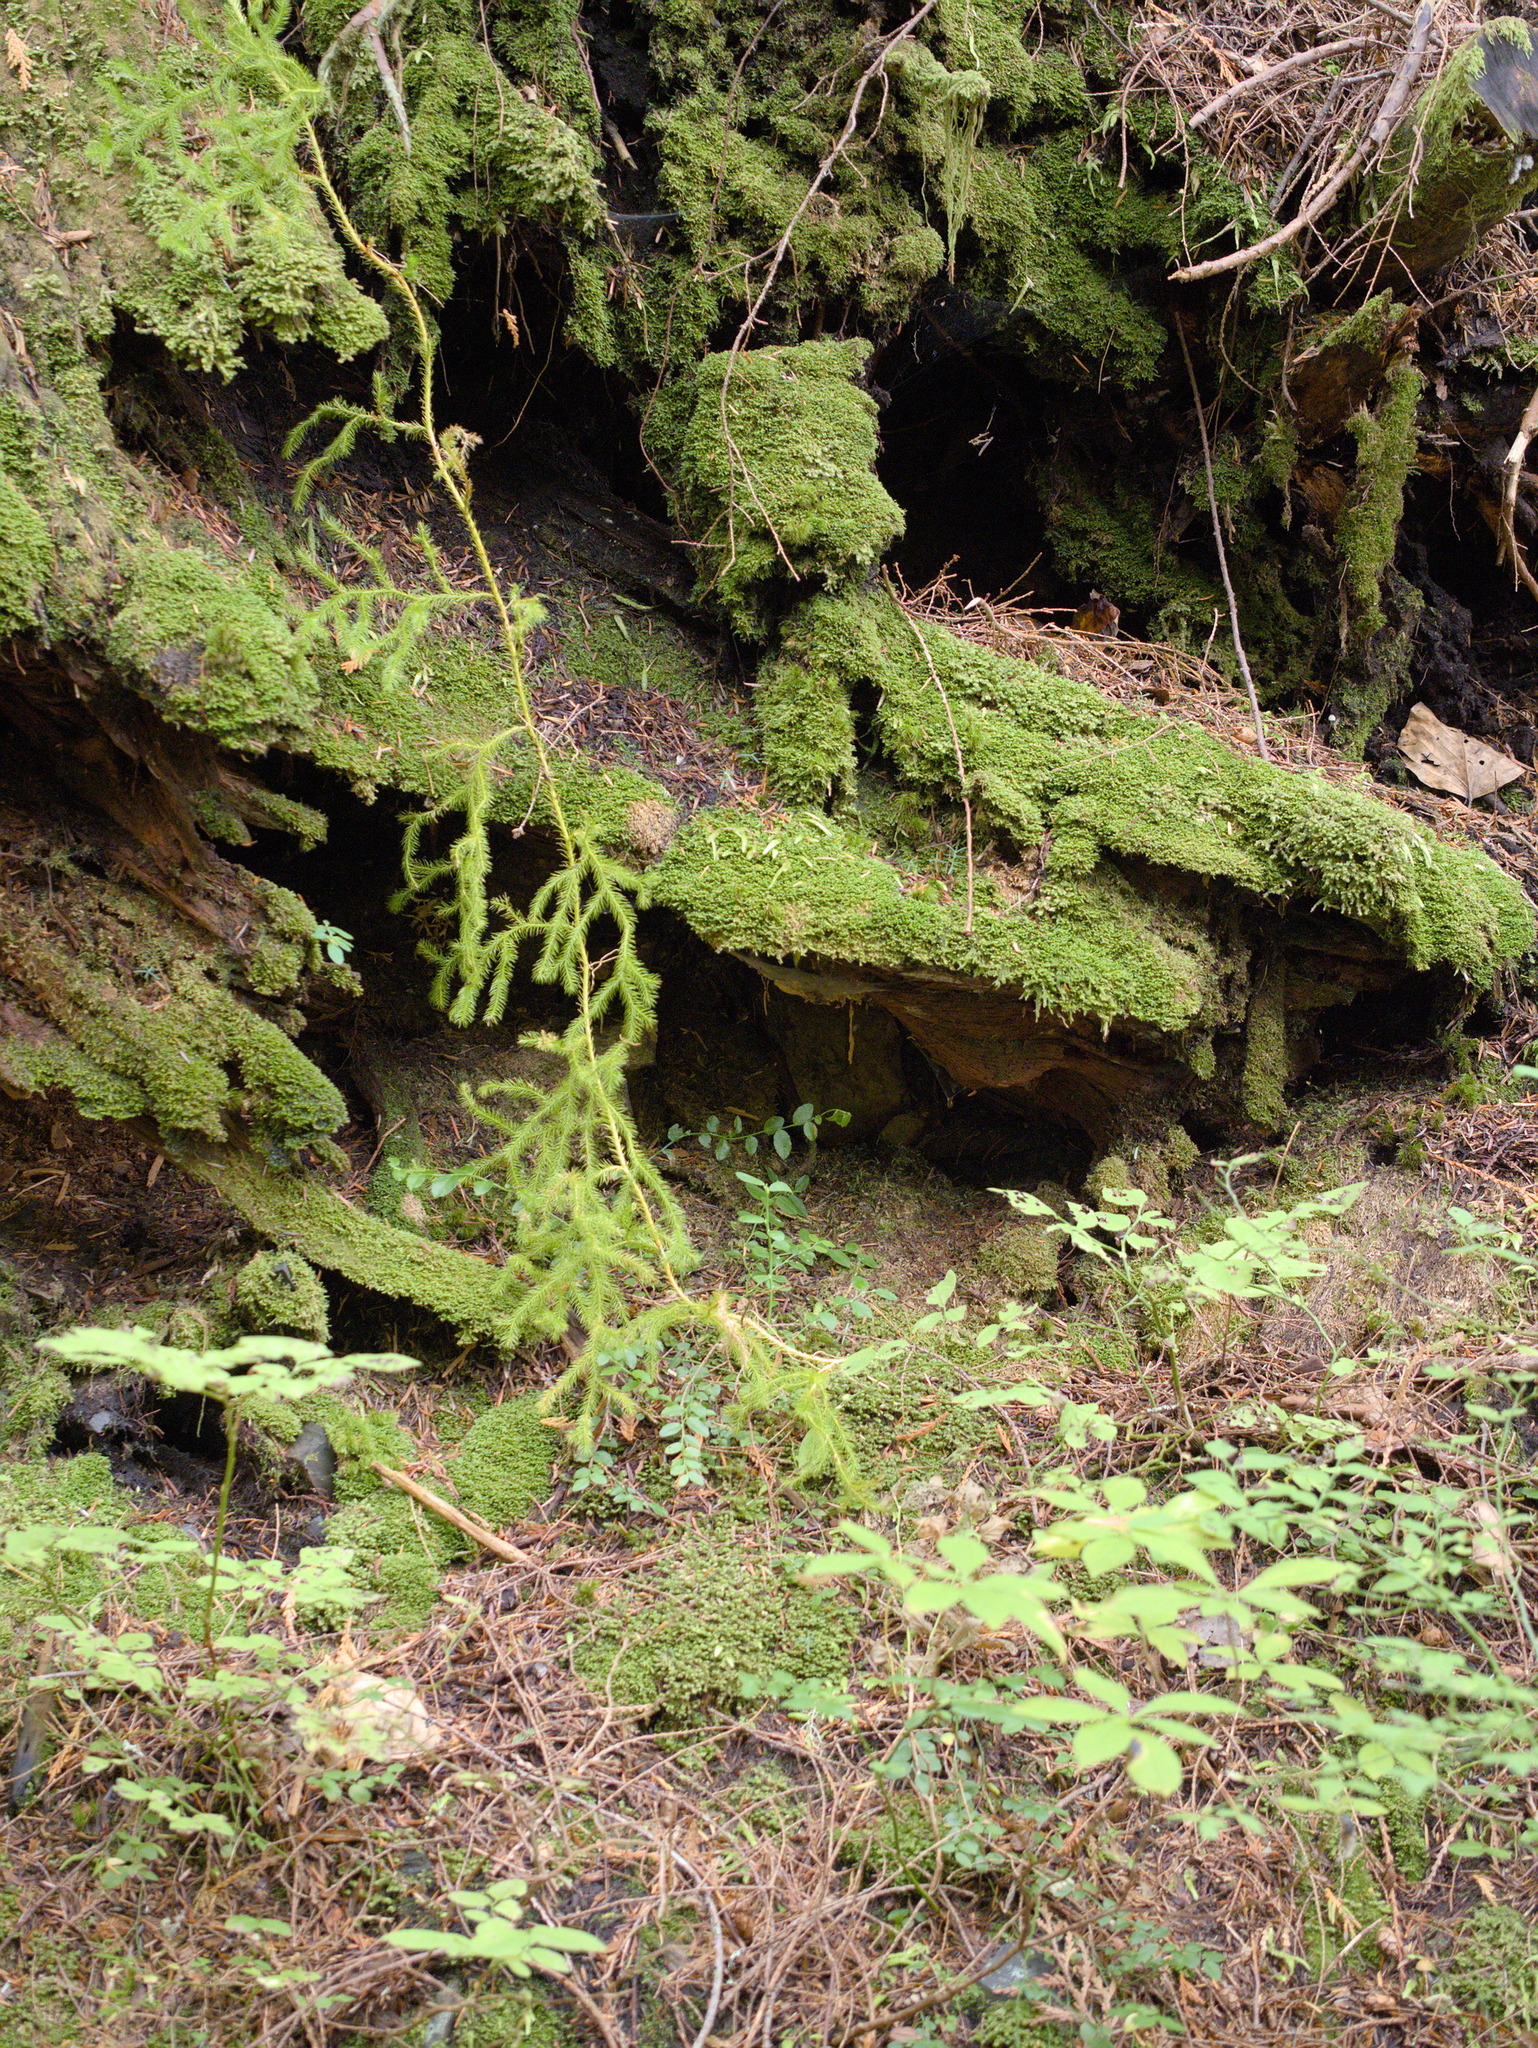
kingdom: Plantae
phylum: Tracheophyta
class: Lycopodiopsida
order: Lycopodiales
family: Lycopodiaceae
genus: Lycopodium
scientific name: Lycopodium clavatum
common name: Stag's-horn clubmoss
